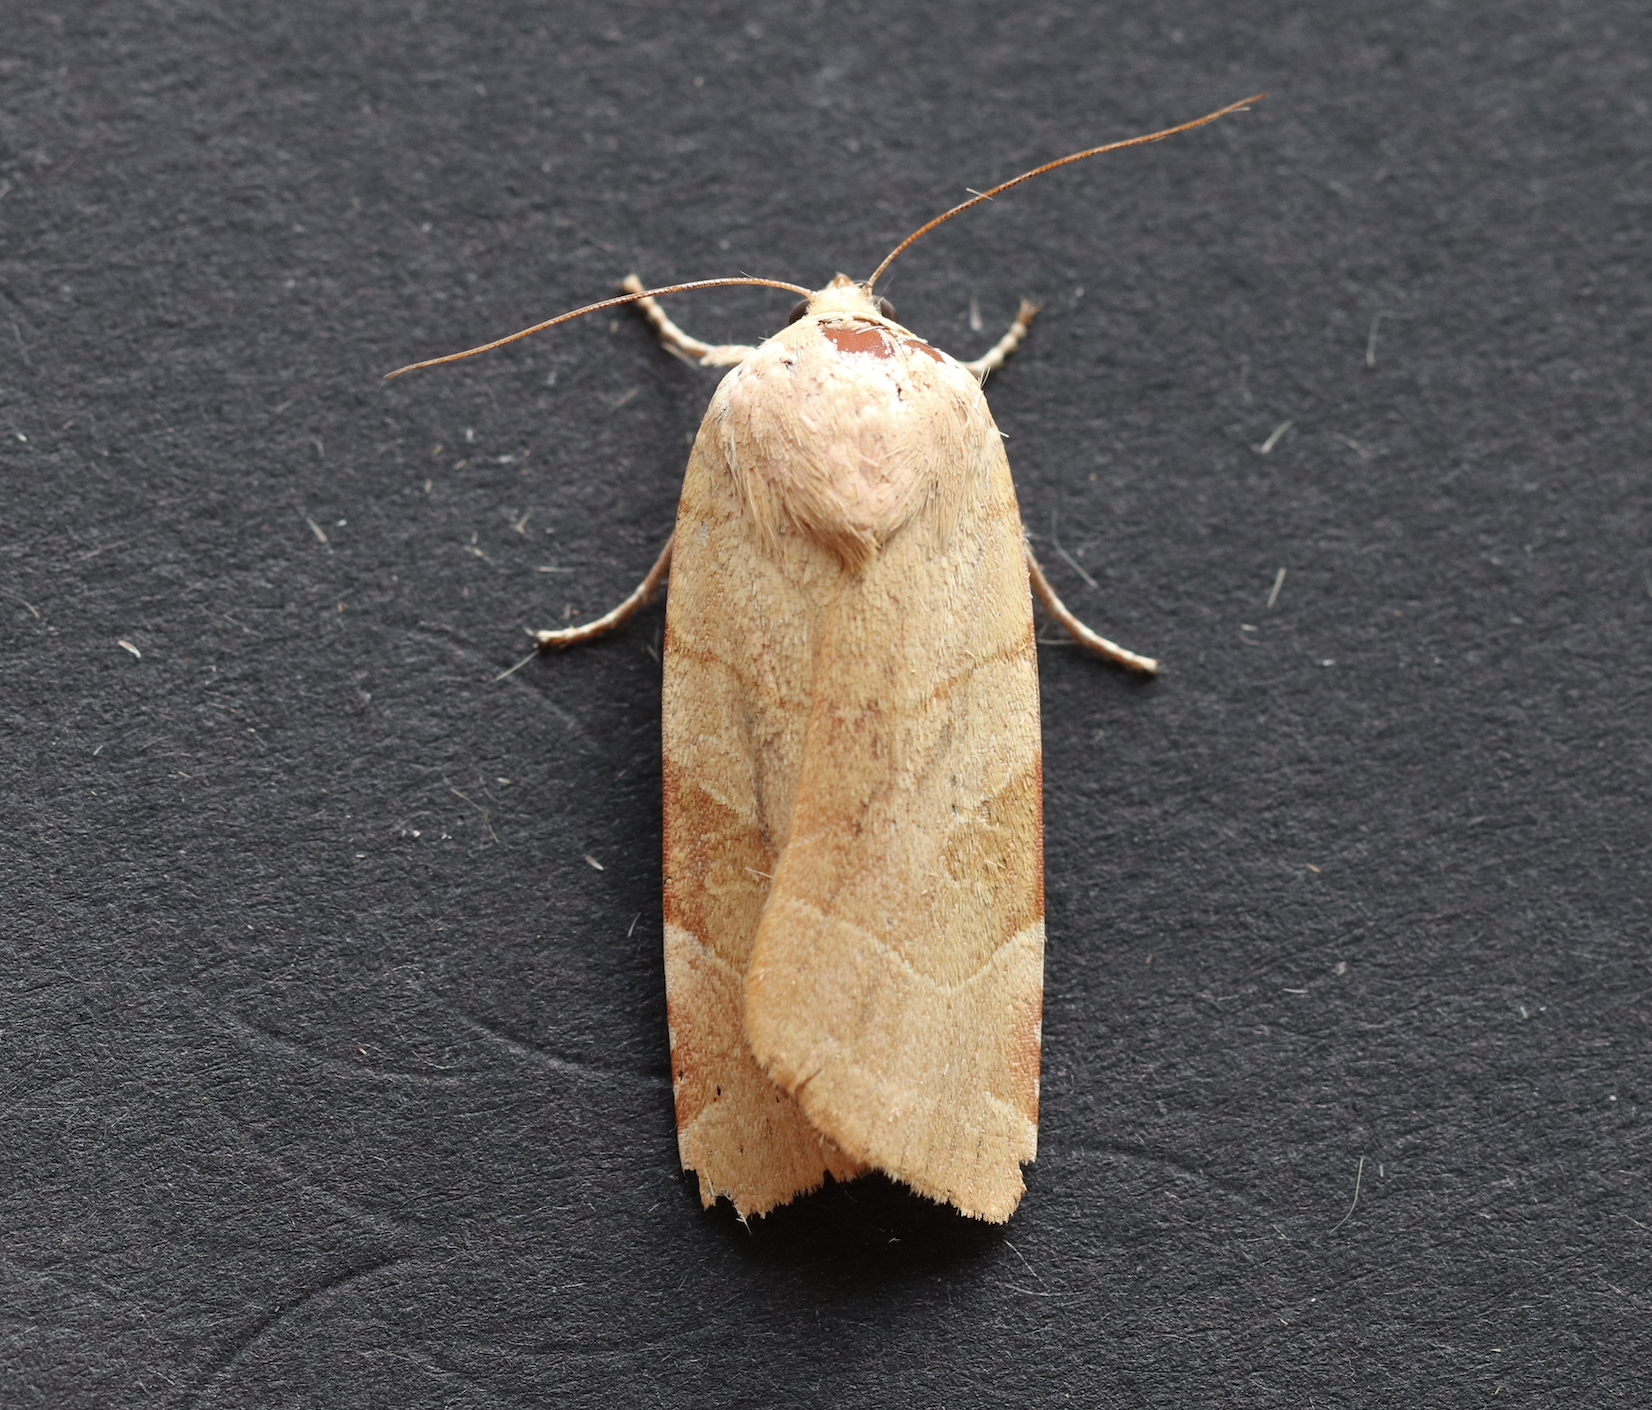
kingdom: Animalia
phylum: Arthropoda
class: Insecta
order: Lepidoptera
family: Noctuidae
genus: Noctua
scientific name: Noctua fimbriata
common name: Broad-bordered yellow underwing
